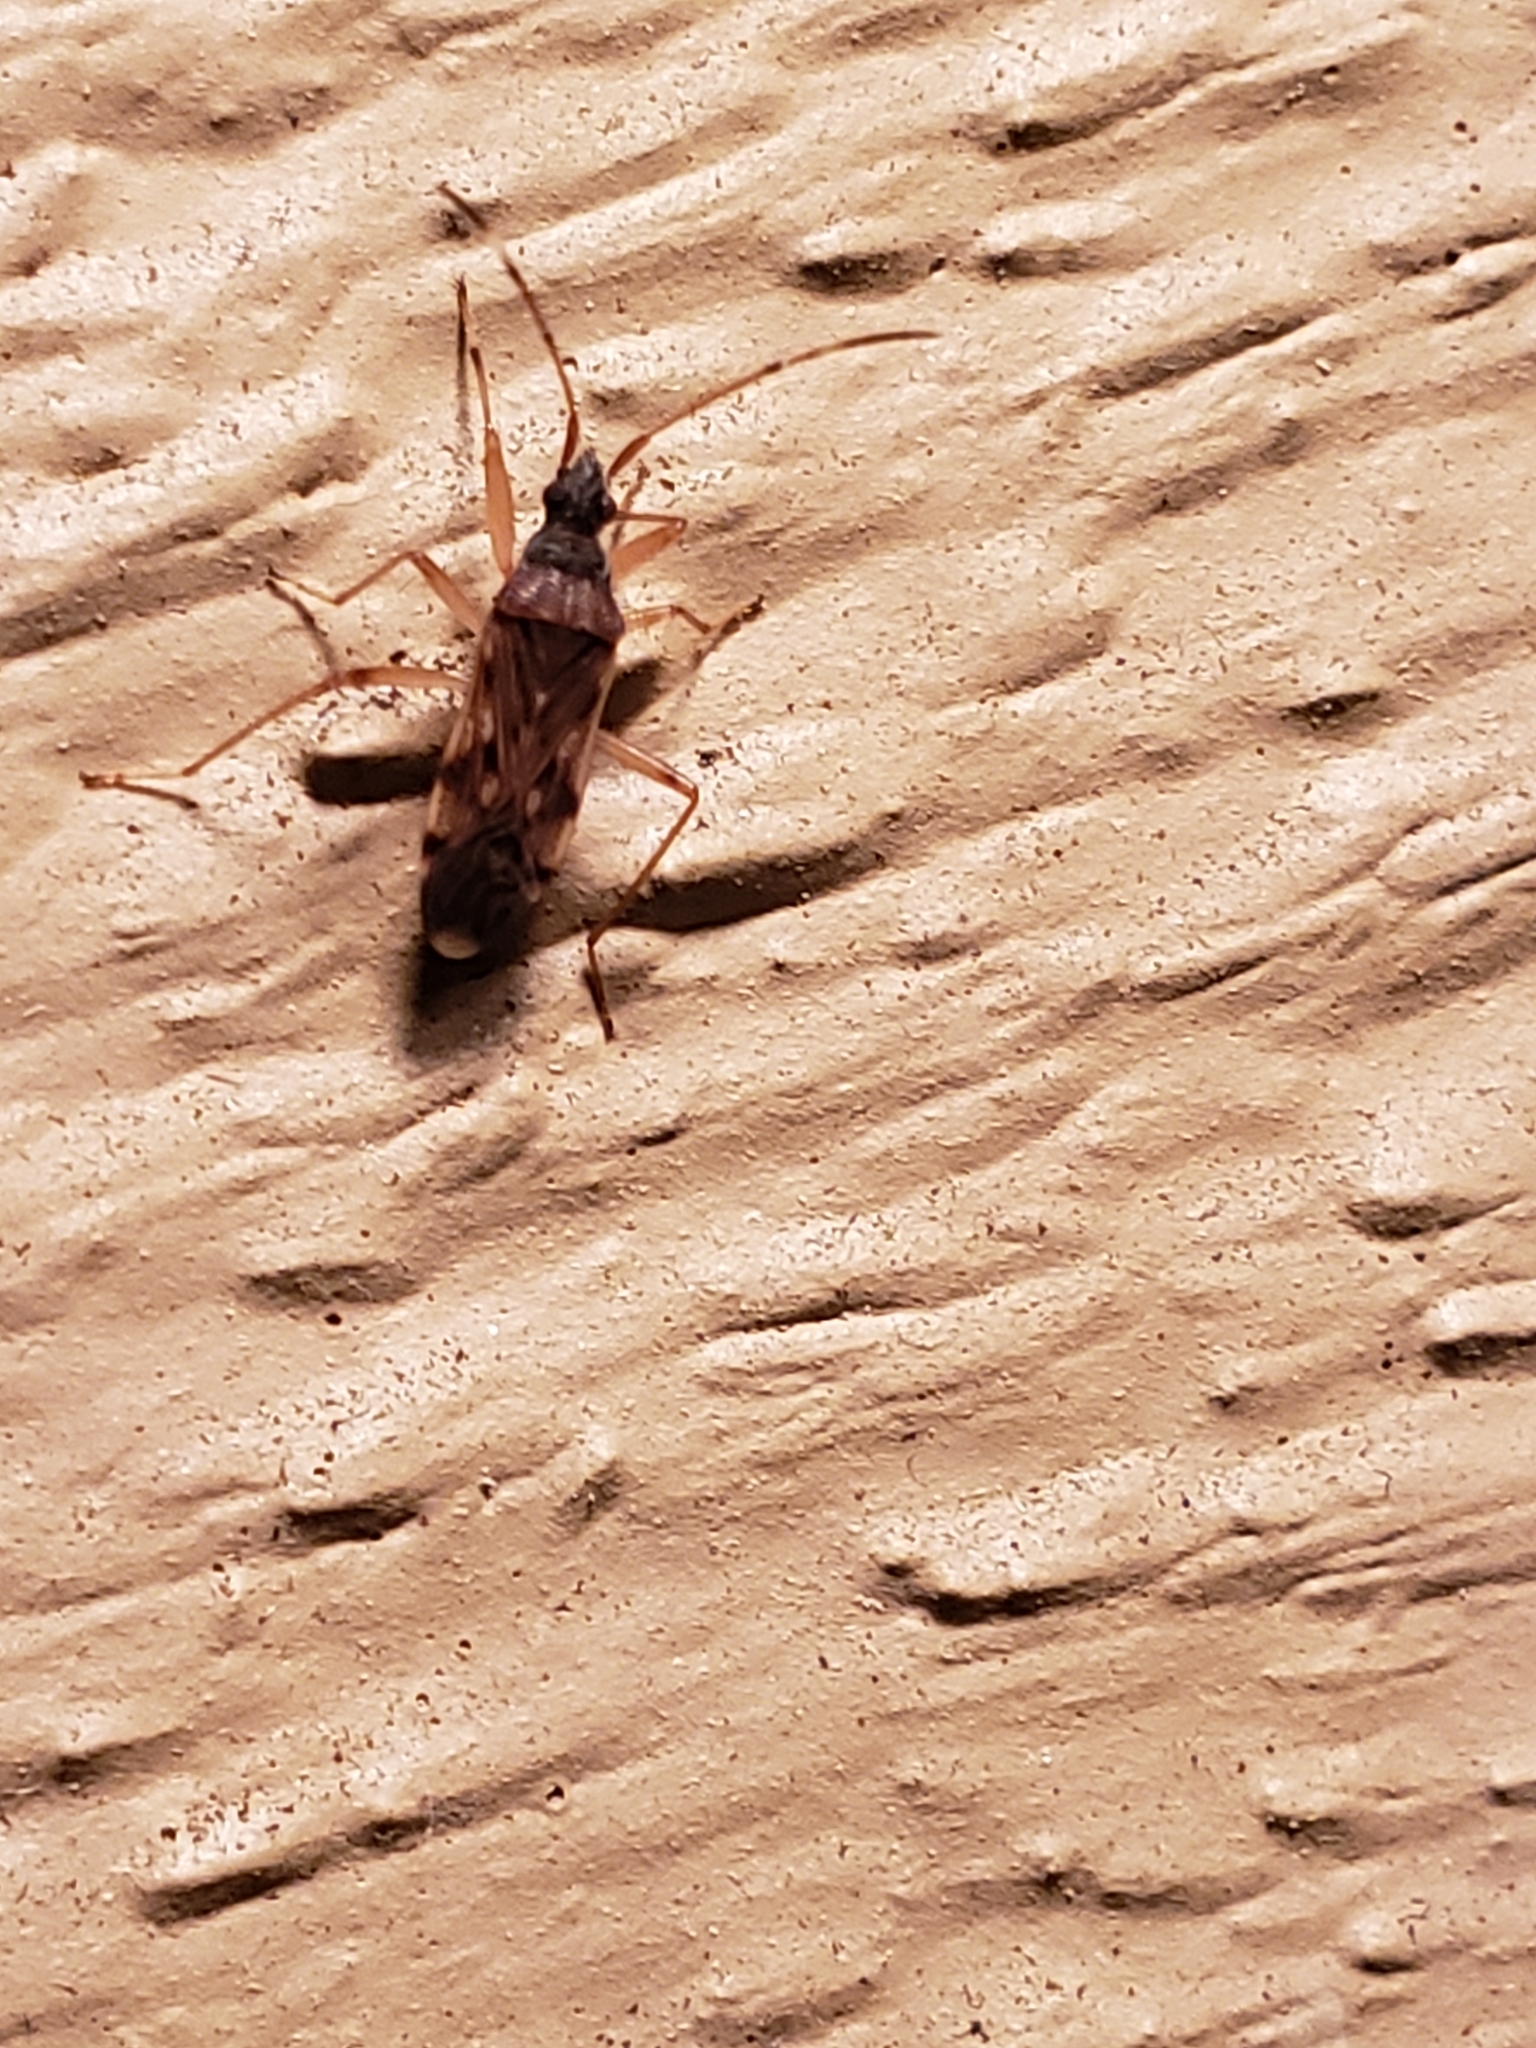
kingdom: Animalia
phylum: Arthropoda
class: Insecta
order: Hemiptera
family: Rhyparochromidae
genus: Ozophora
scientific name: Ozophora picturata
